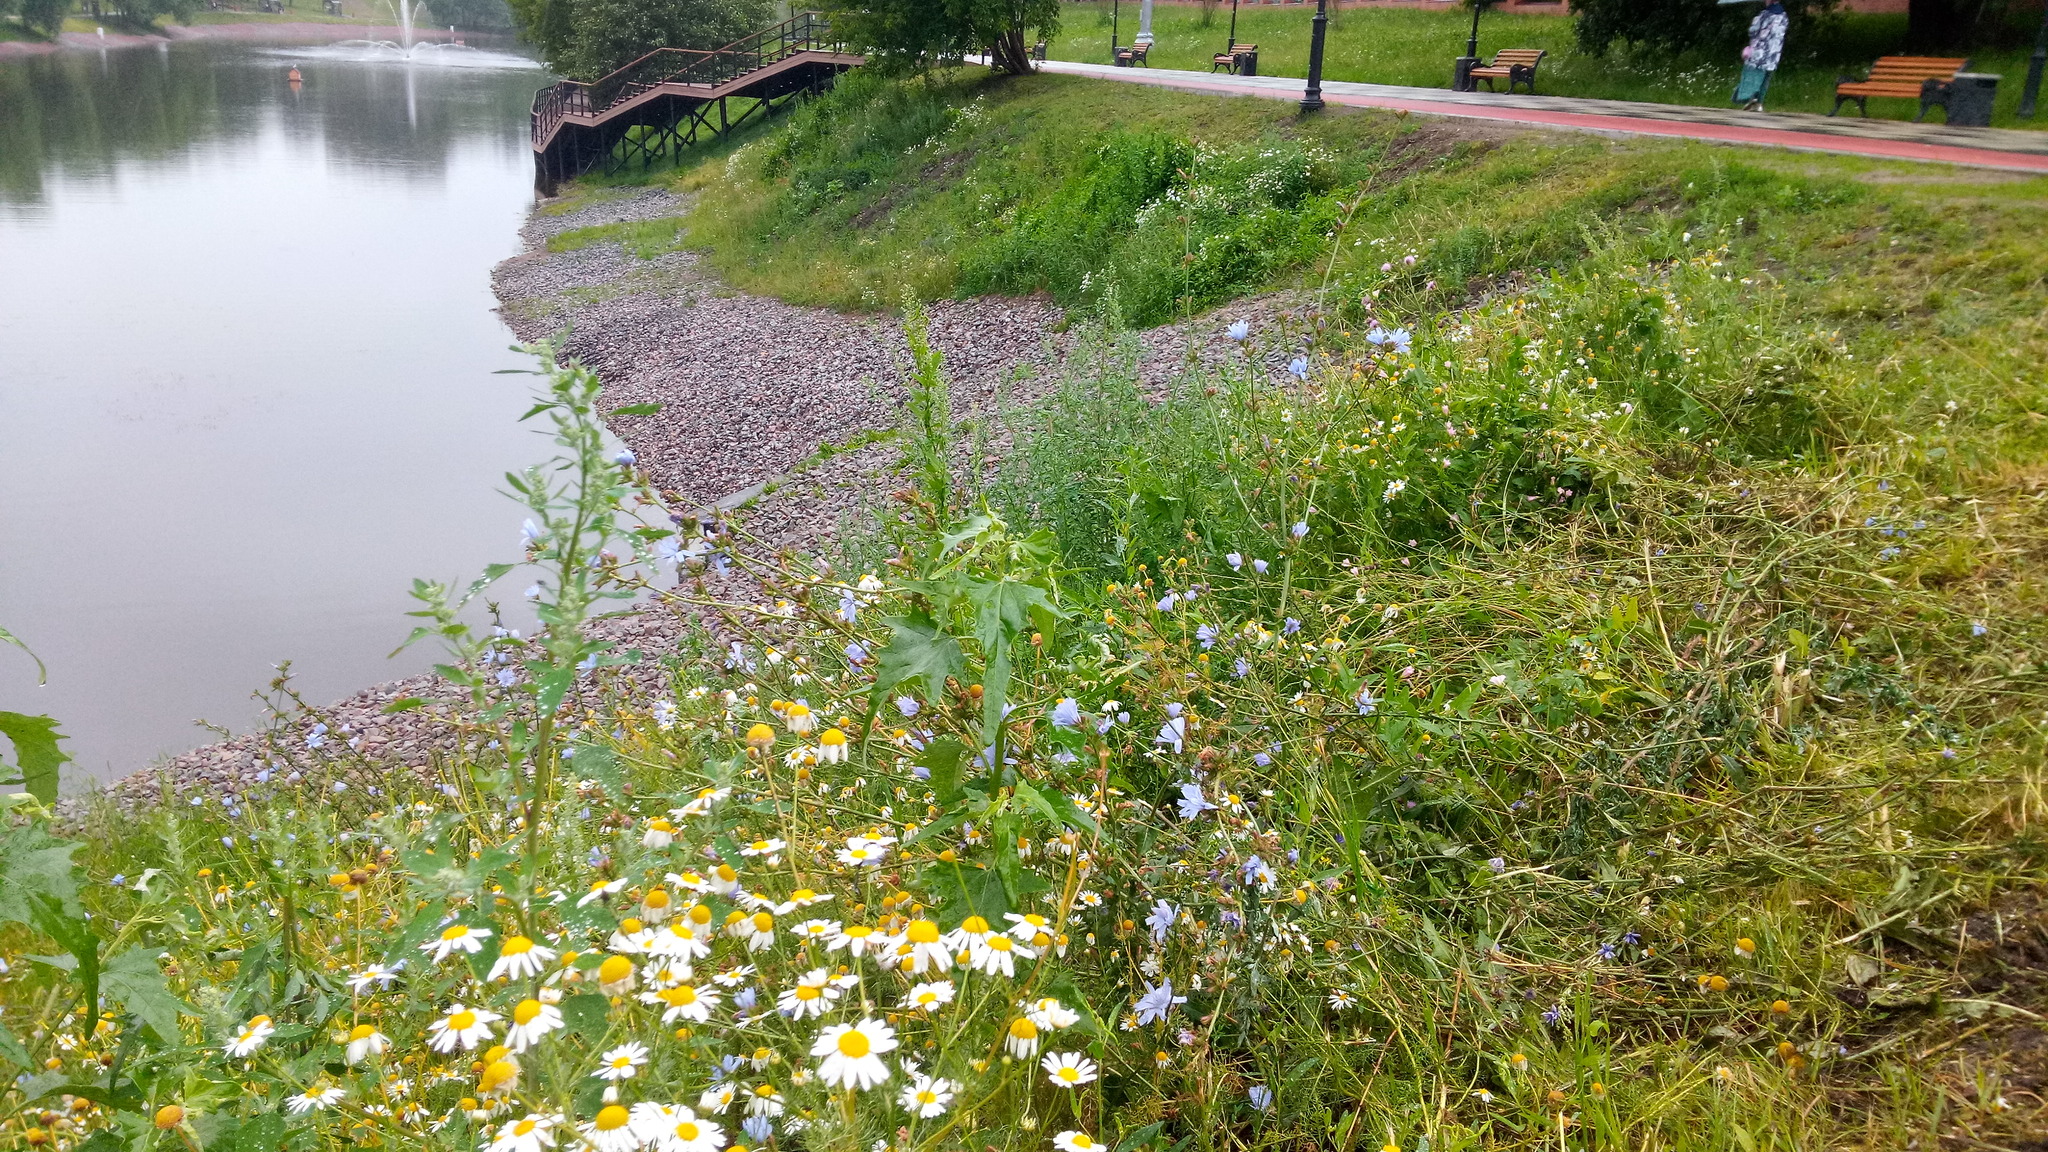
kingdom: Plantae
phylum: Tracheophyta
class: Magnoliopsida
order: Asterales
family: Asteraceae
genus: Tripleurospermum
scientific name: Tripleurospermum inodorum
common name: Scentless mayweed
